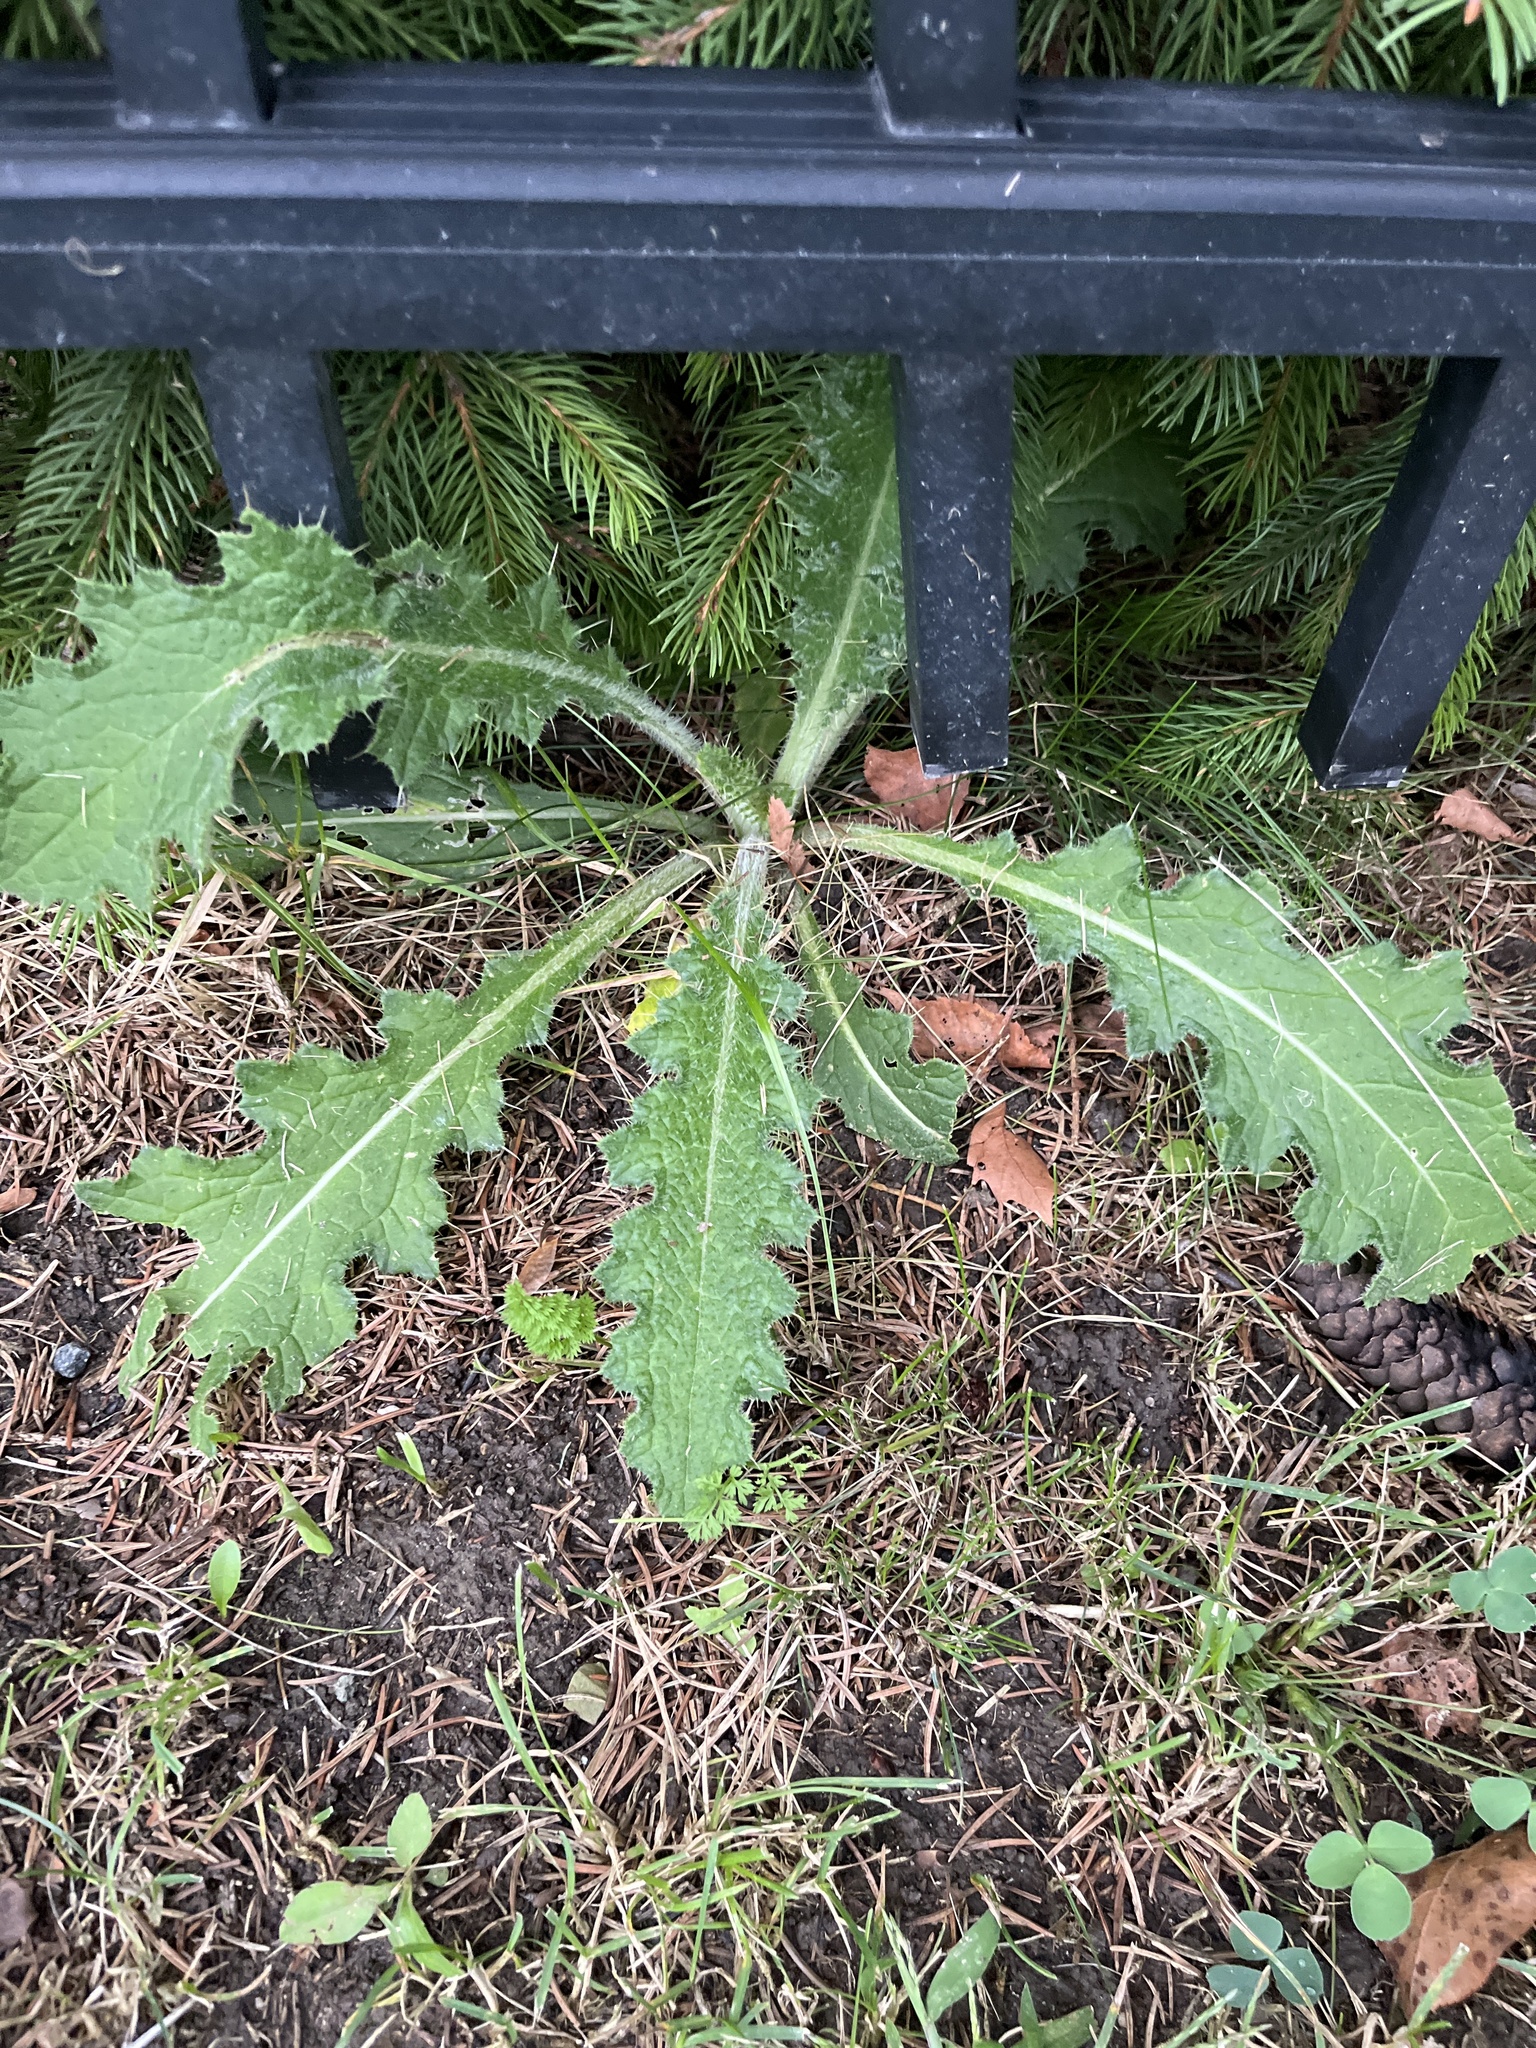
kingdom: Plantae
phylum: Tracheophyta
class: Magnoliopsida
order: Asterales
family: Asteraceae
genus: Cirsium
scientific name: Cirsium vulgare
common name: Bull thistle
